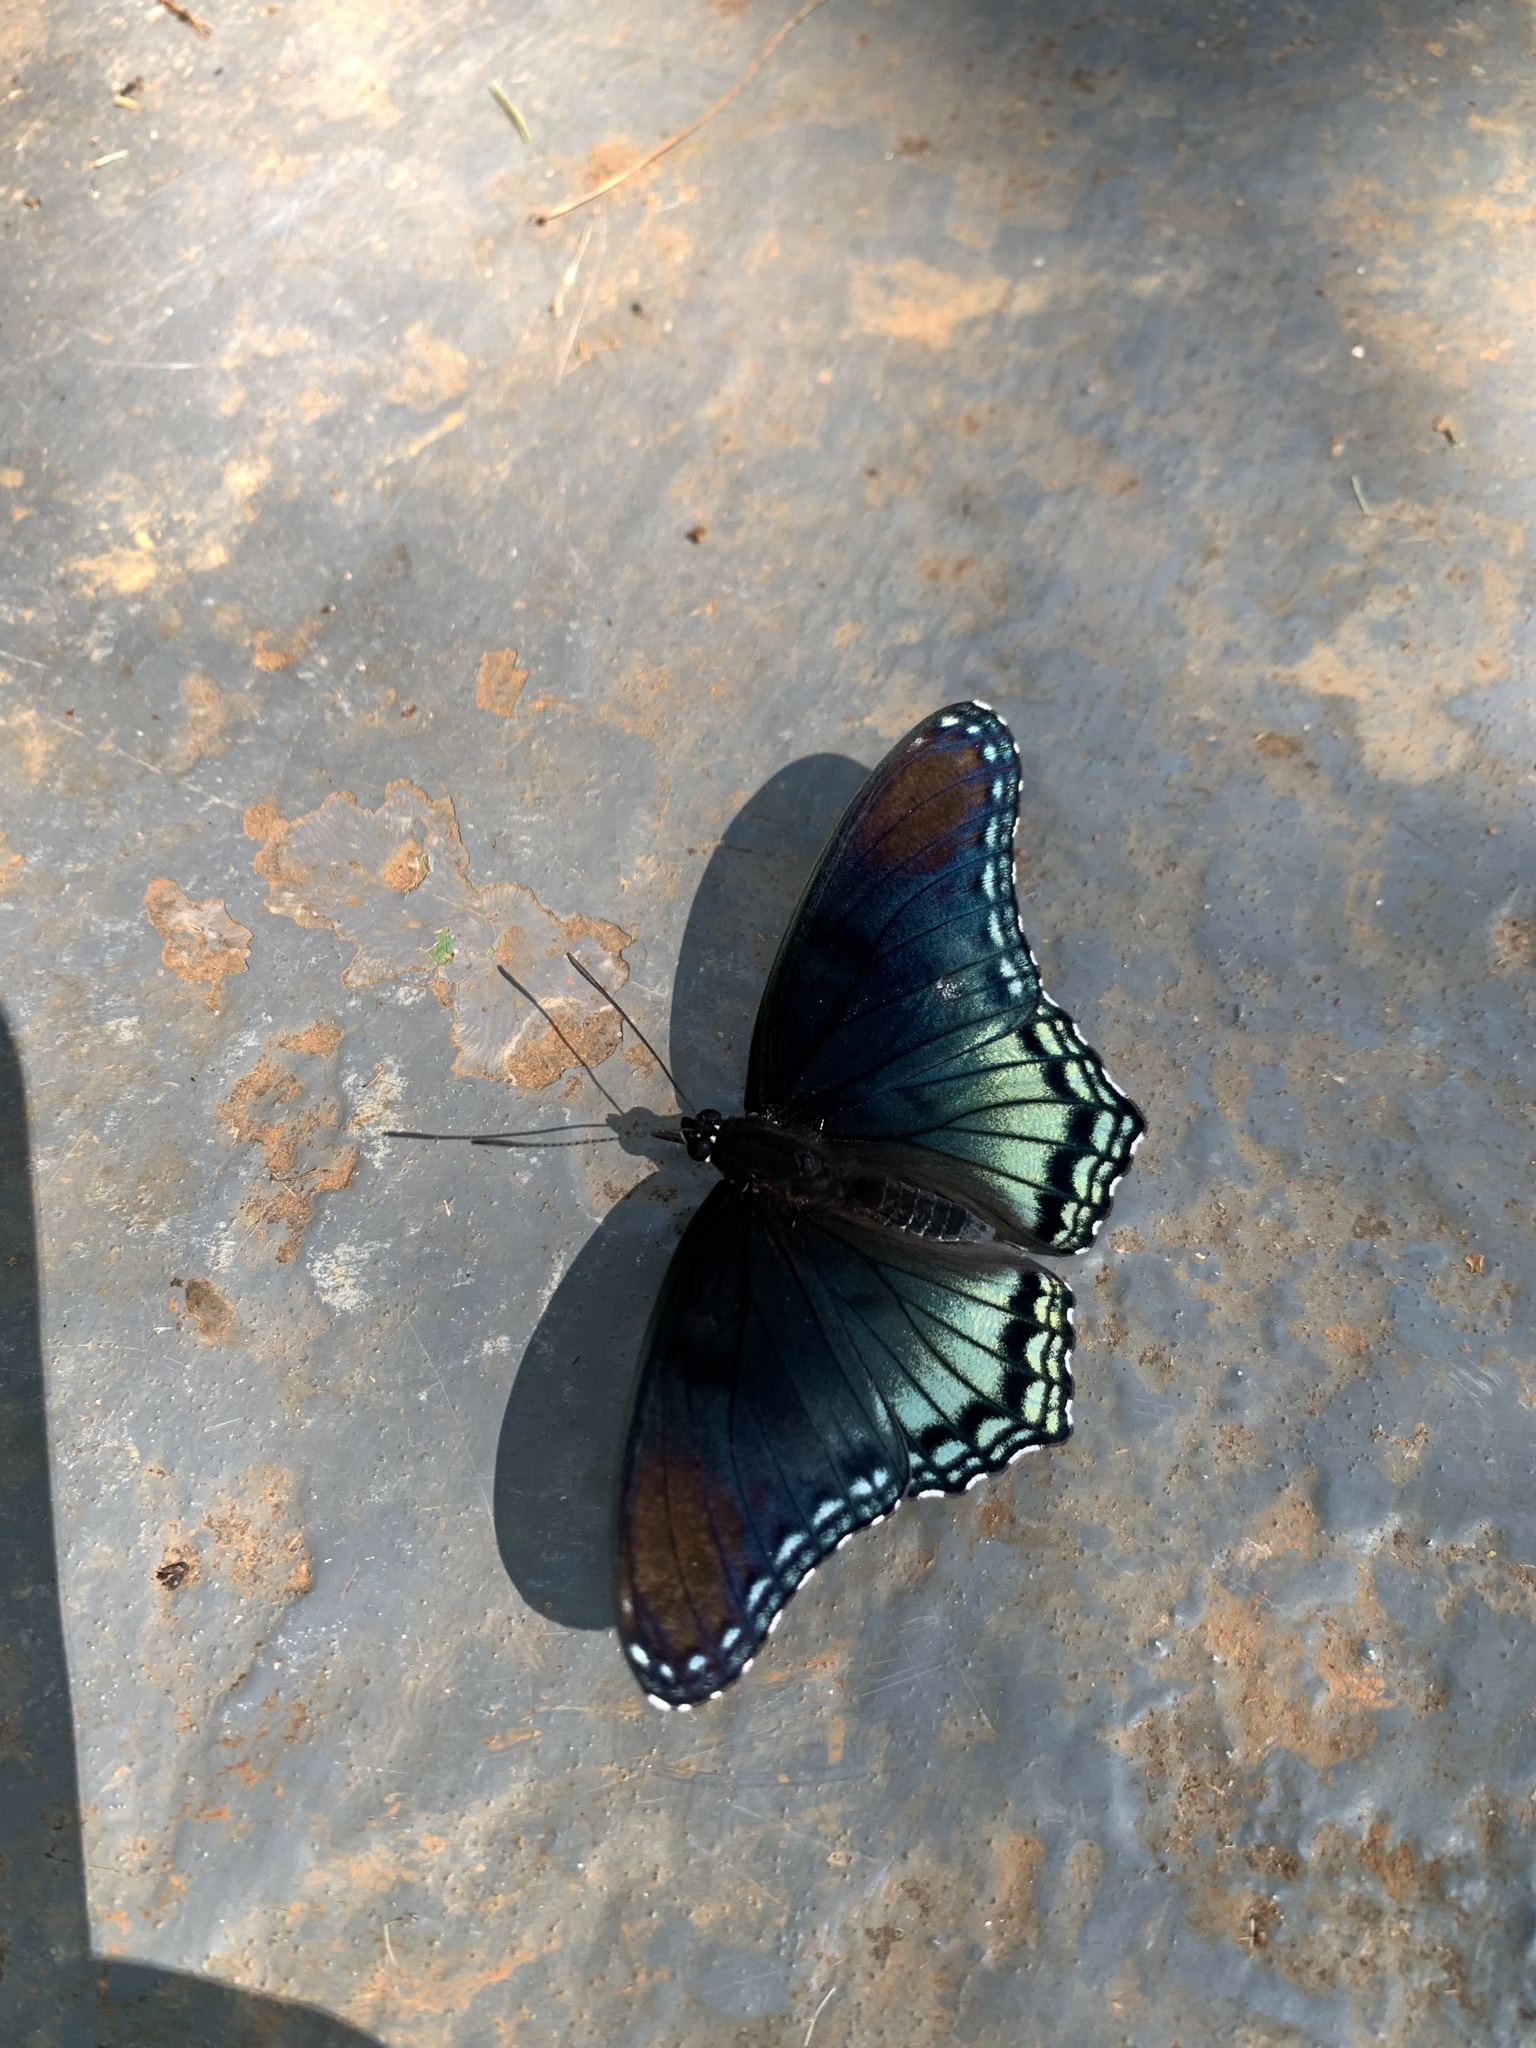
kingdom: Animalia
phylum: Arthropoda
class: Insecta
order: Lepidoptera
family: Nymphalidae
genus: Limenitis
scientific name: Limenitis astyanax
